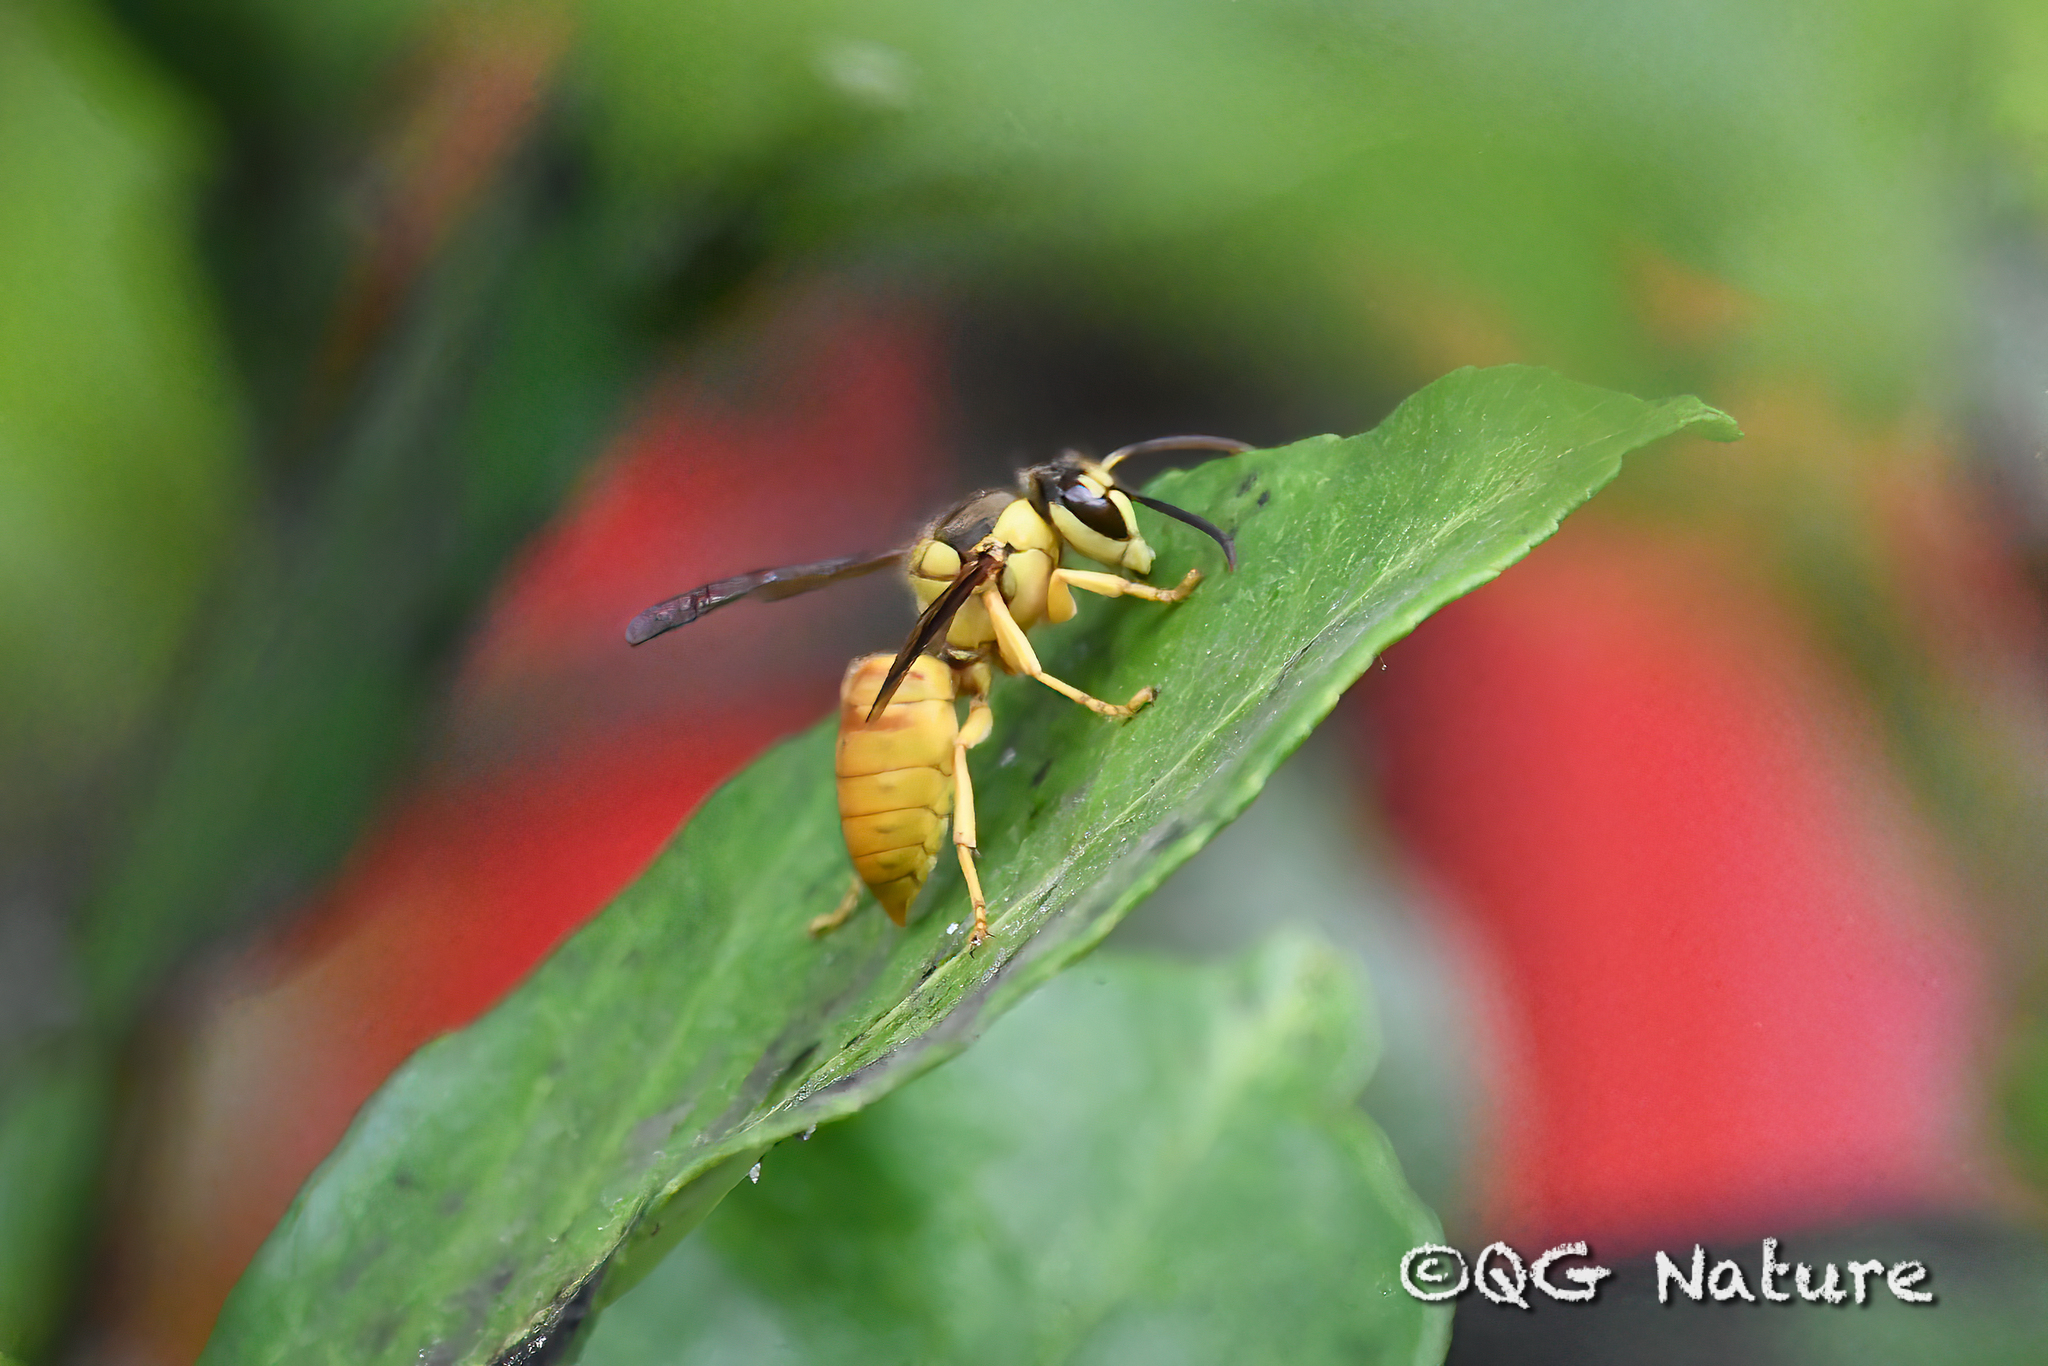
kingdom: Animalia
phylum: Arthropoda
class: Insecta
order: Hymenoptera
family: Vespidae
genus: Vespa
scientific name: Vespa bicolor
